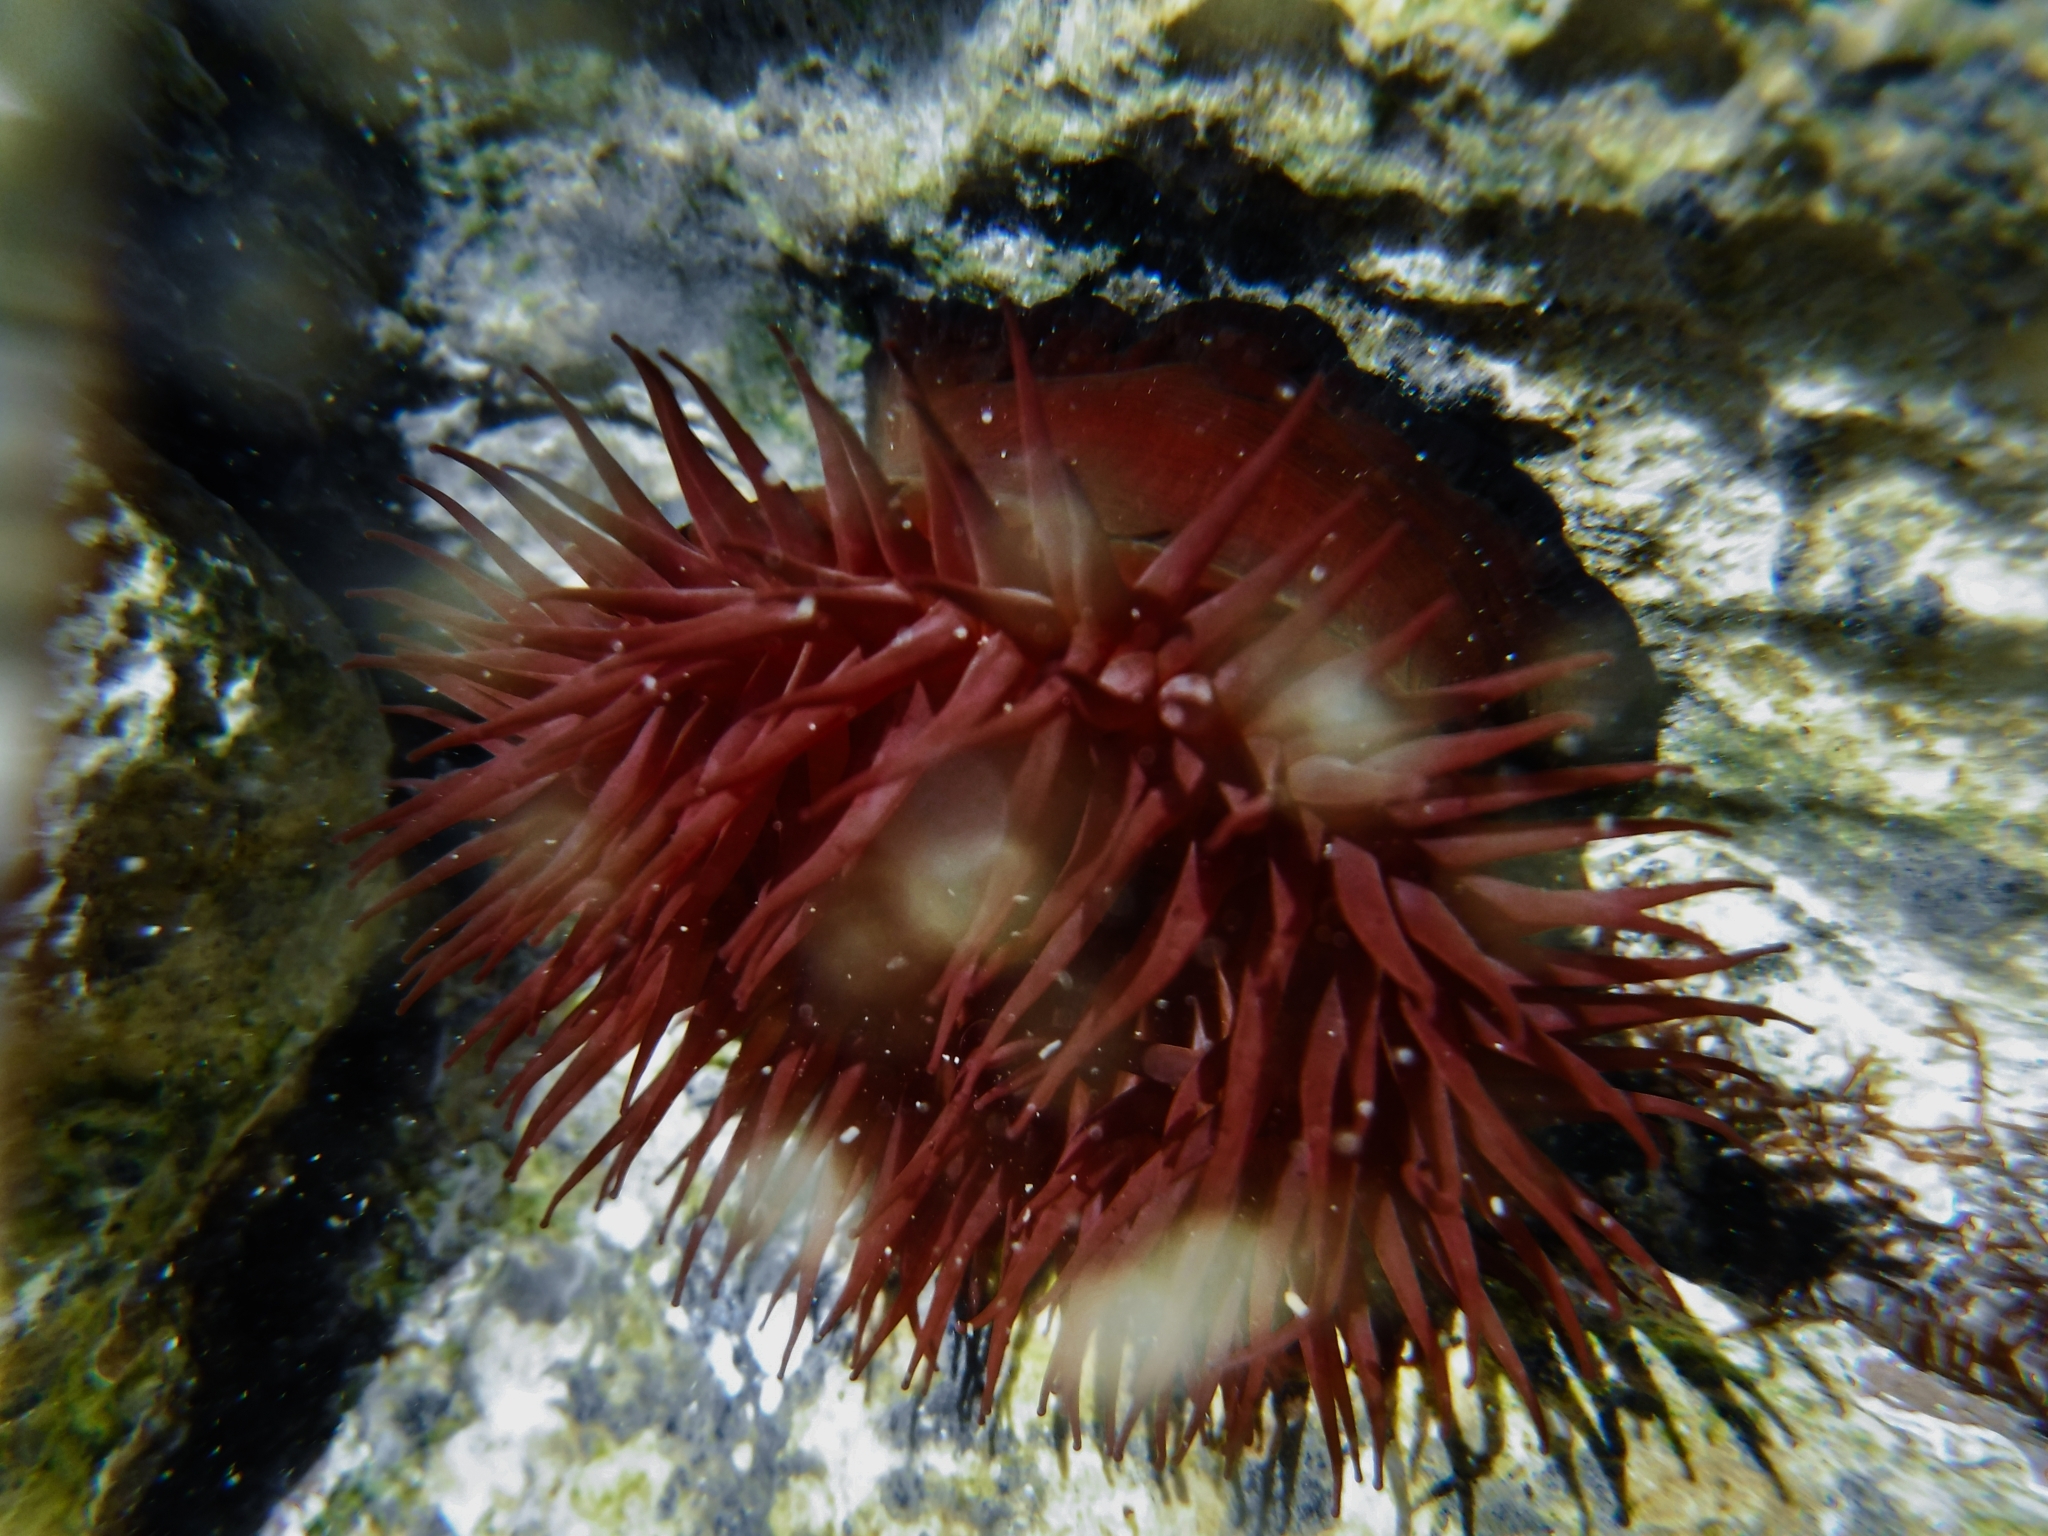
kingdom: Animalia
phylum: Cnidaria
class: Anthozoa
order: Actiniaria
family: Actiniidae
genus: Actinia
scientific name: Actinia mediterranea
